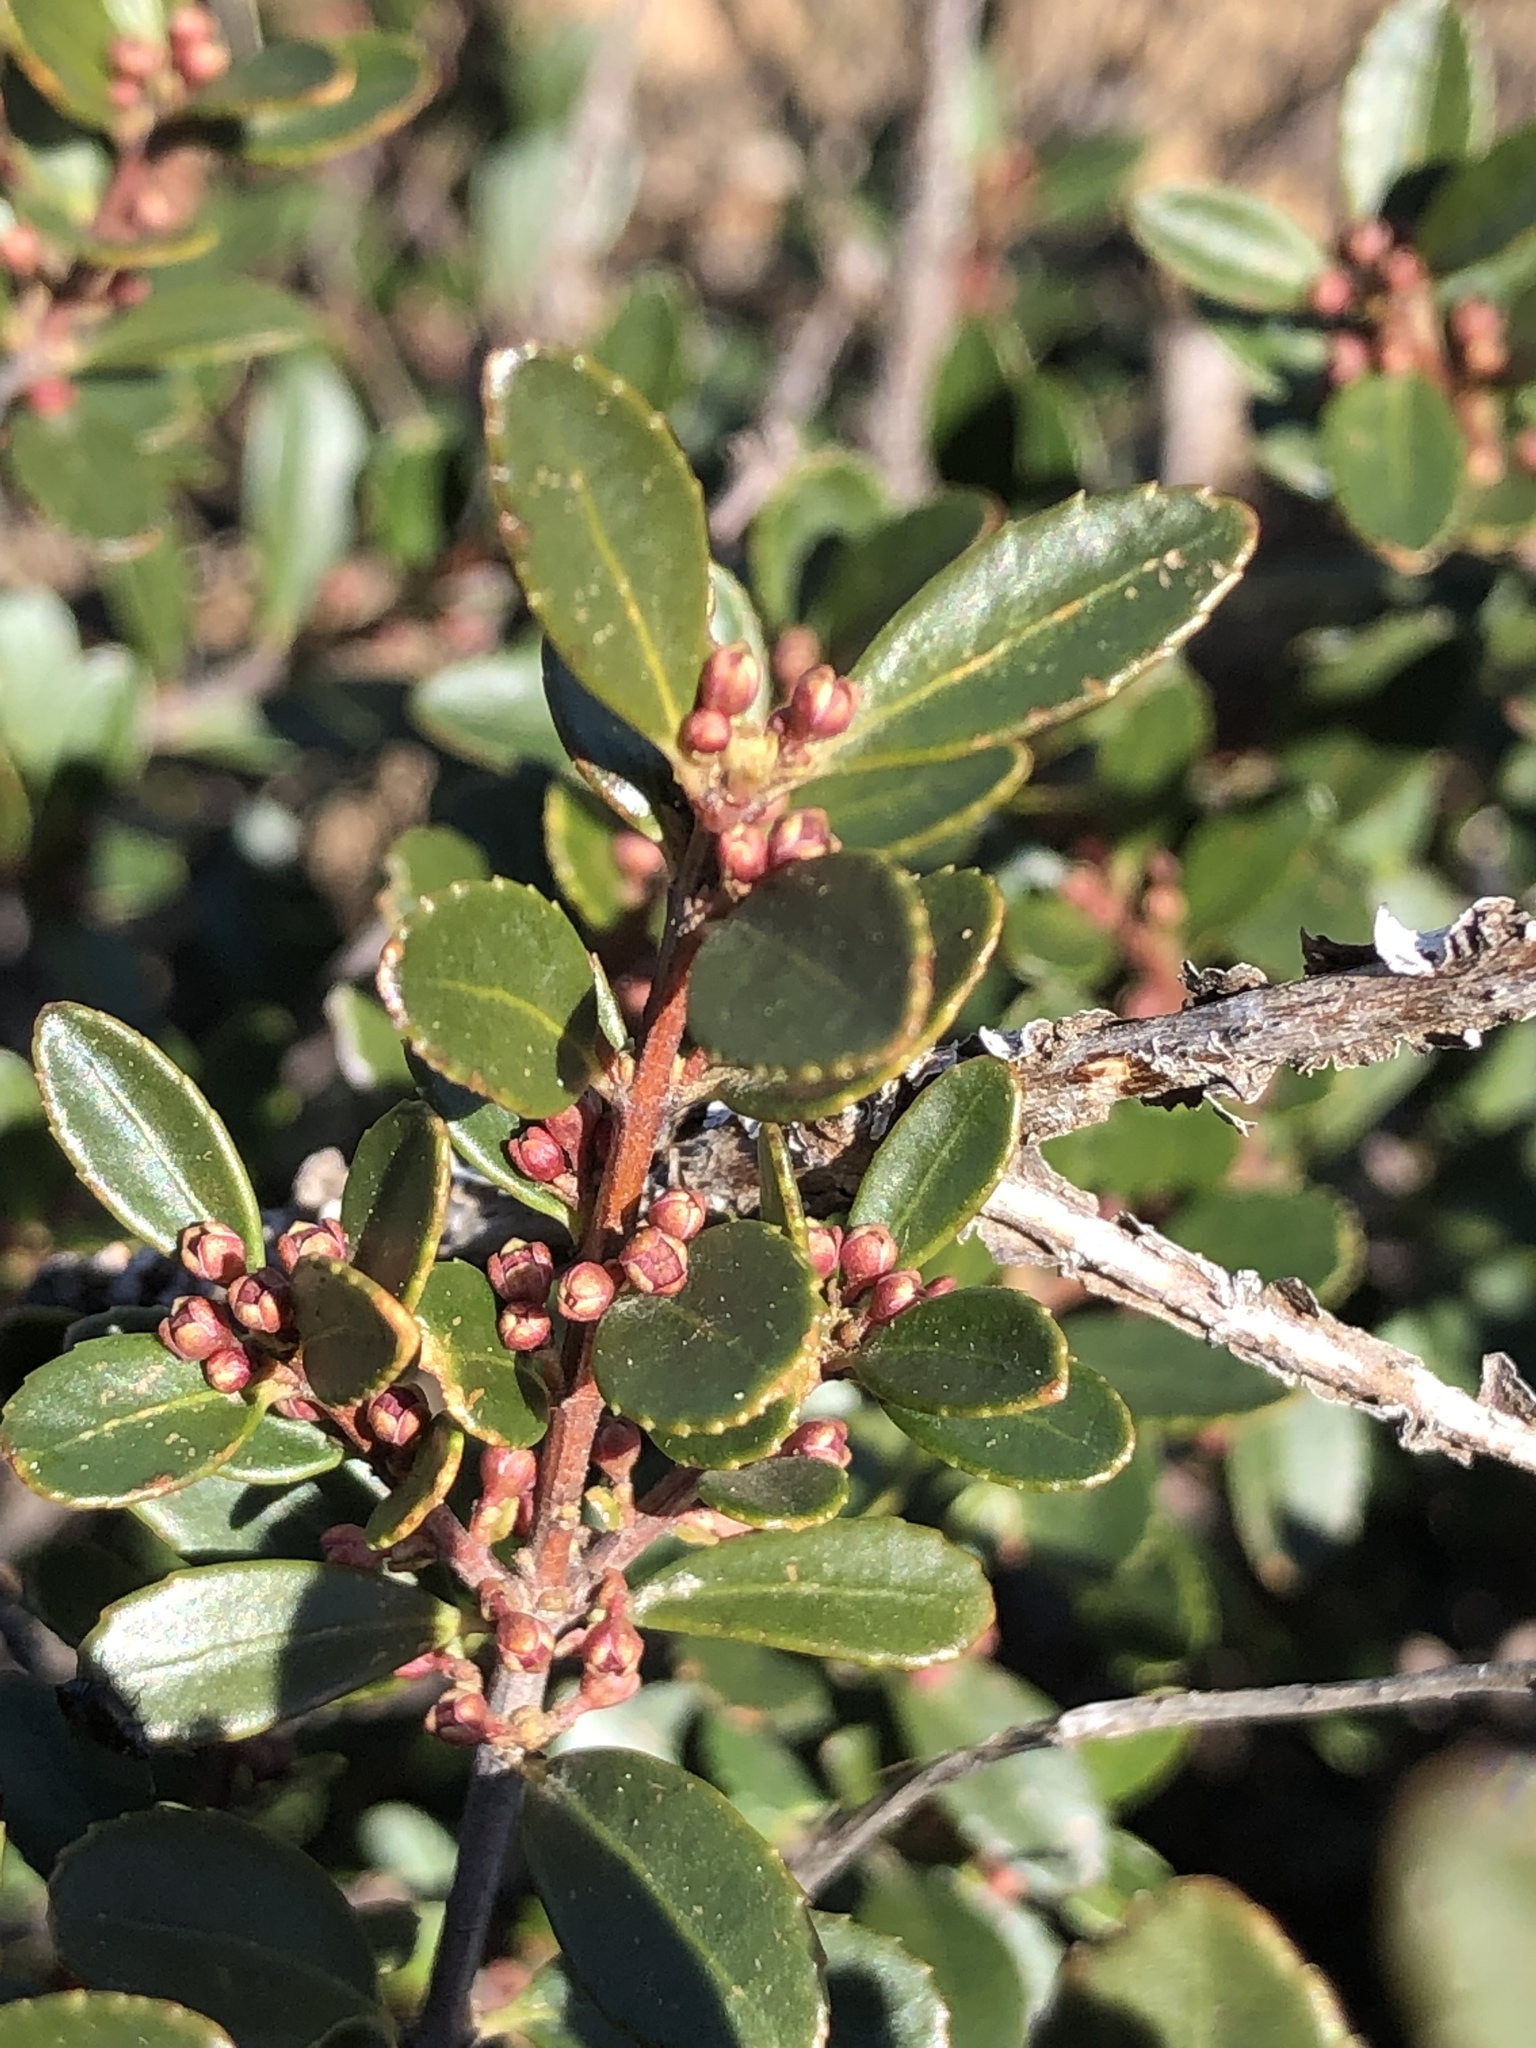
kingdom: Plantae
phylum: Tracheophyta
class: Magnoliopsida
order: Celastrales
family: Celastraceae
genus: Paxistima
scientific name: Paxistima myrsinites
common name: Mountain-lover
